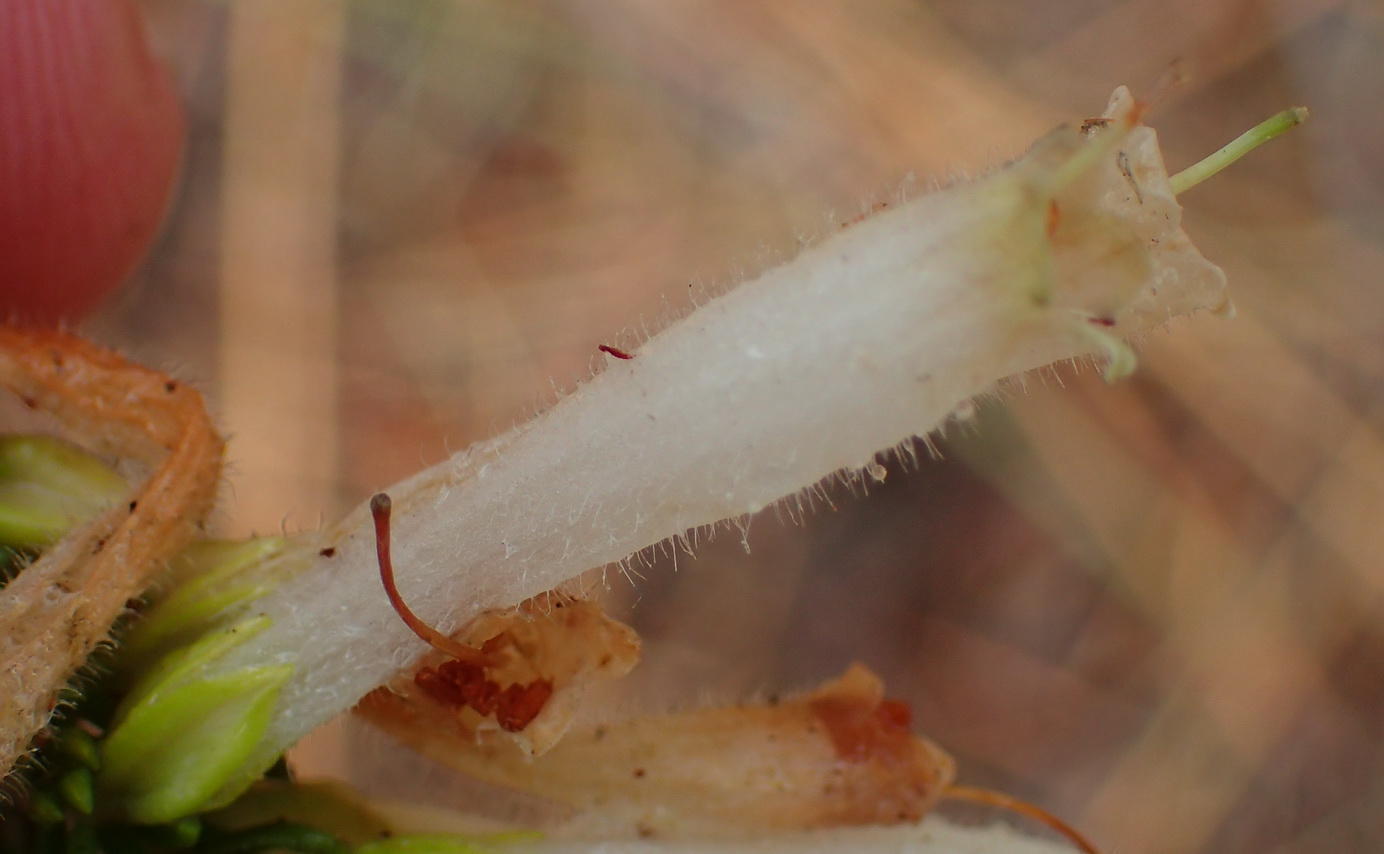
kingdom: Plantae
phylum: Tracheophyta
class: Magnoliopsida
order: Ericales
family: Ericaceae
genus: Erica
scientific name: Erica densifolia
